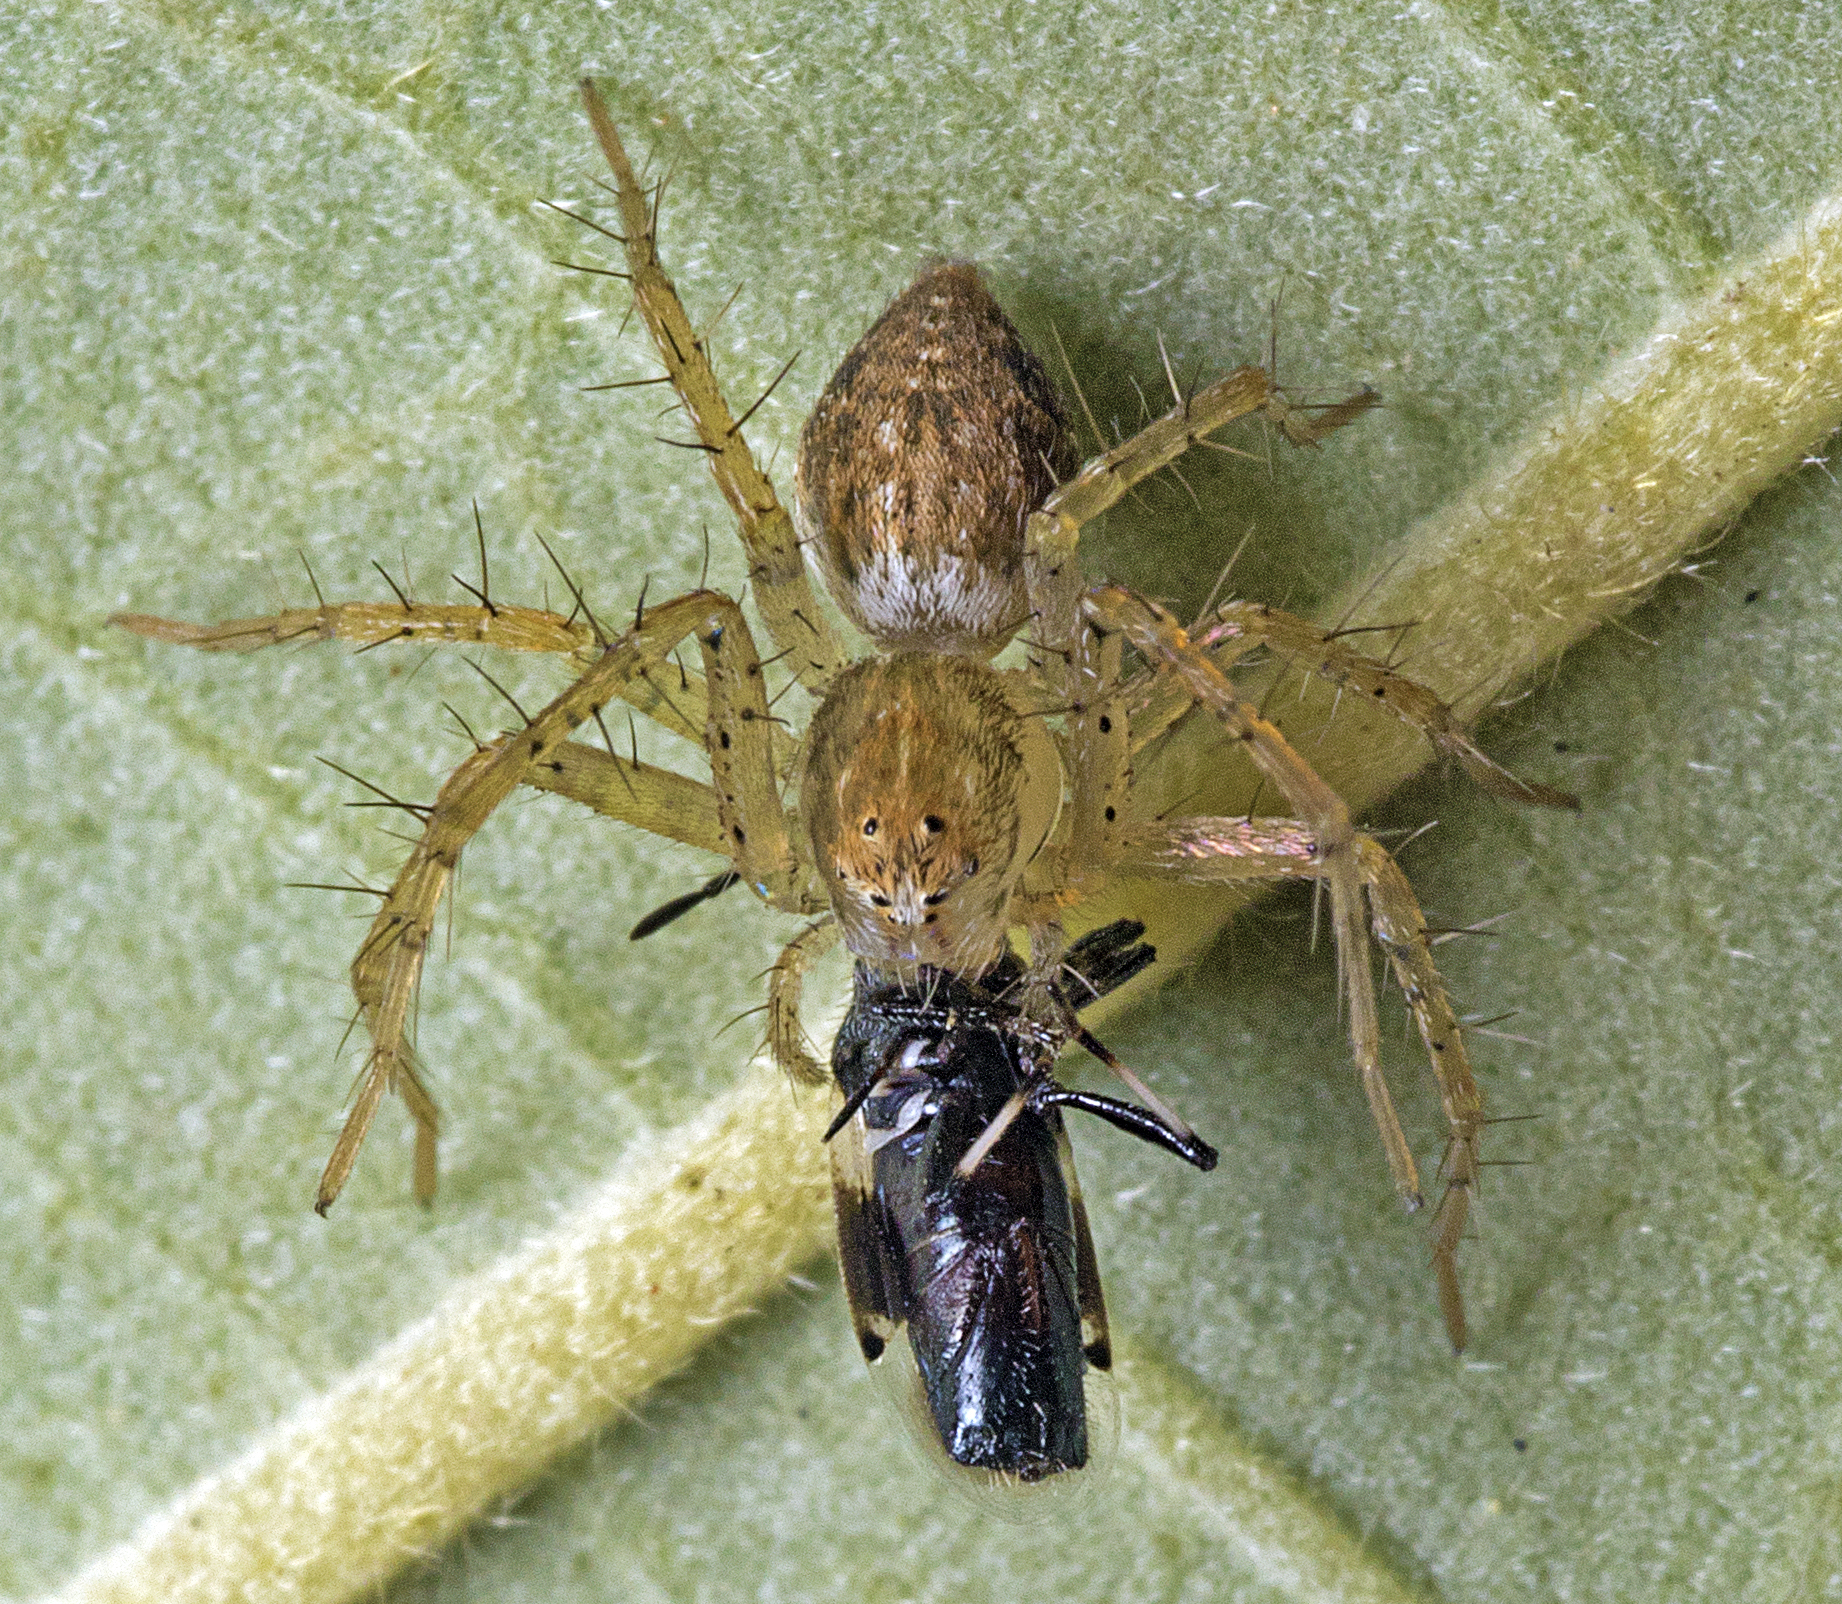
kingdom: Animalia
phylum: Arthropoda
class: Arachnida
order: Araneae
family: Oxyopidae
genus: Oxyopes
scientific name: Oxyopes punctatus
